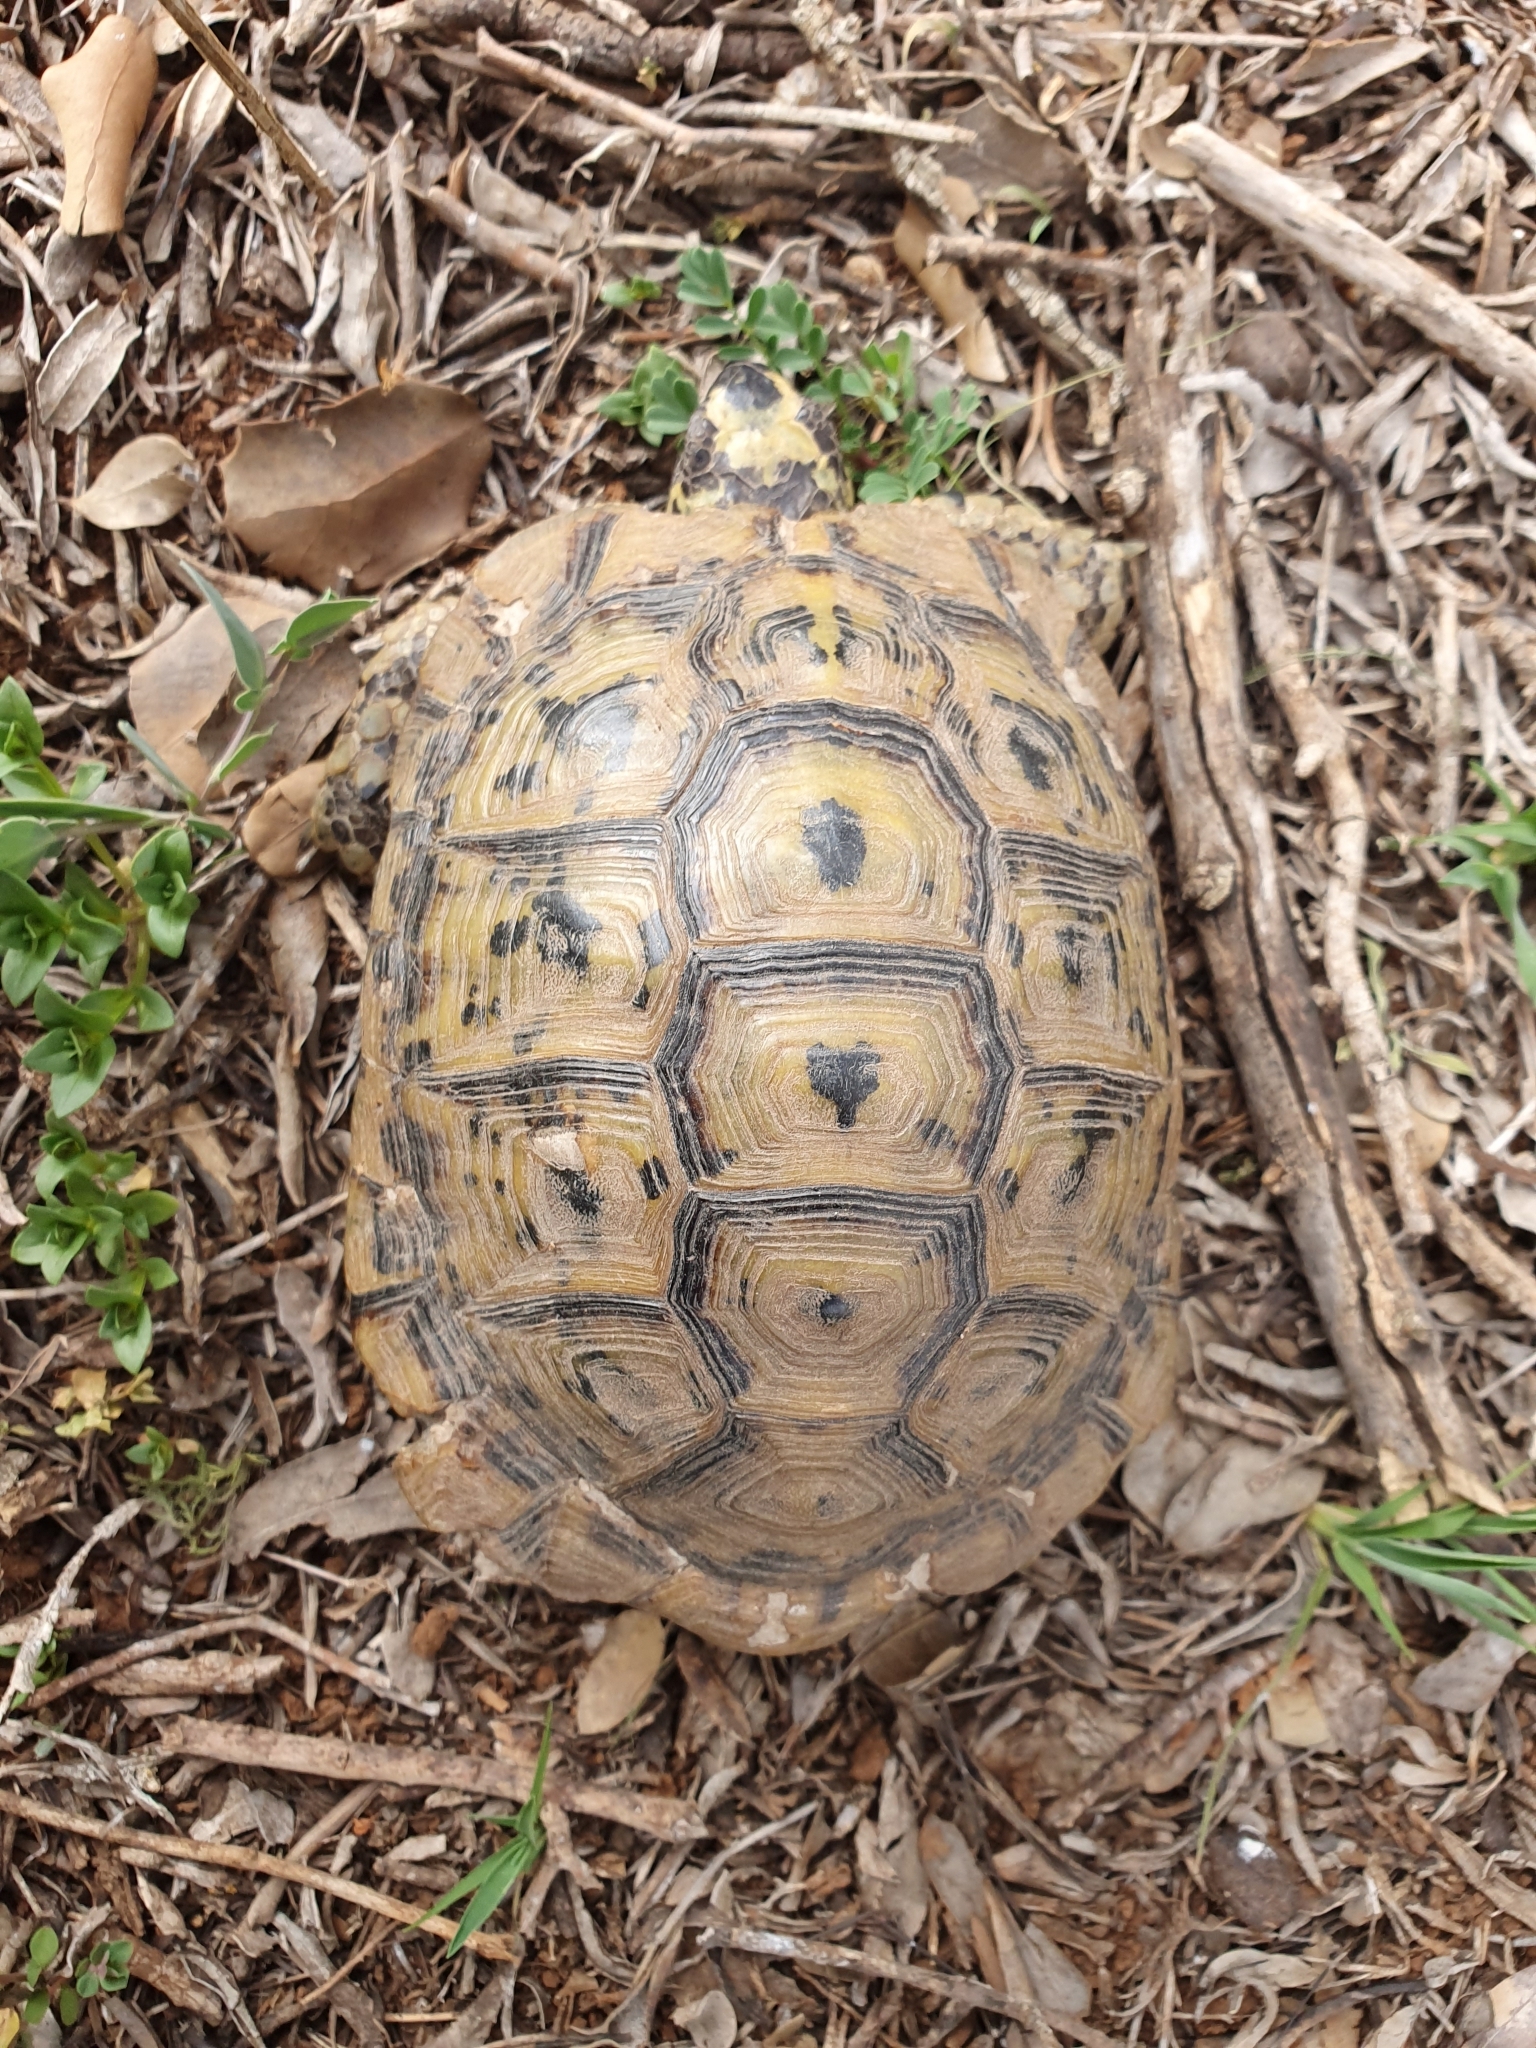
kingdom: Animalia
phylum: Chordata
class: Testudines
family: Testudinidae
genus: Testudo
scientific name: Testudo graeca
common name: Common tortoise
